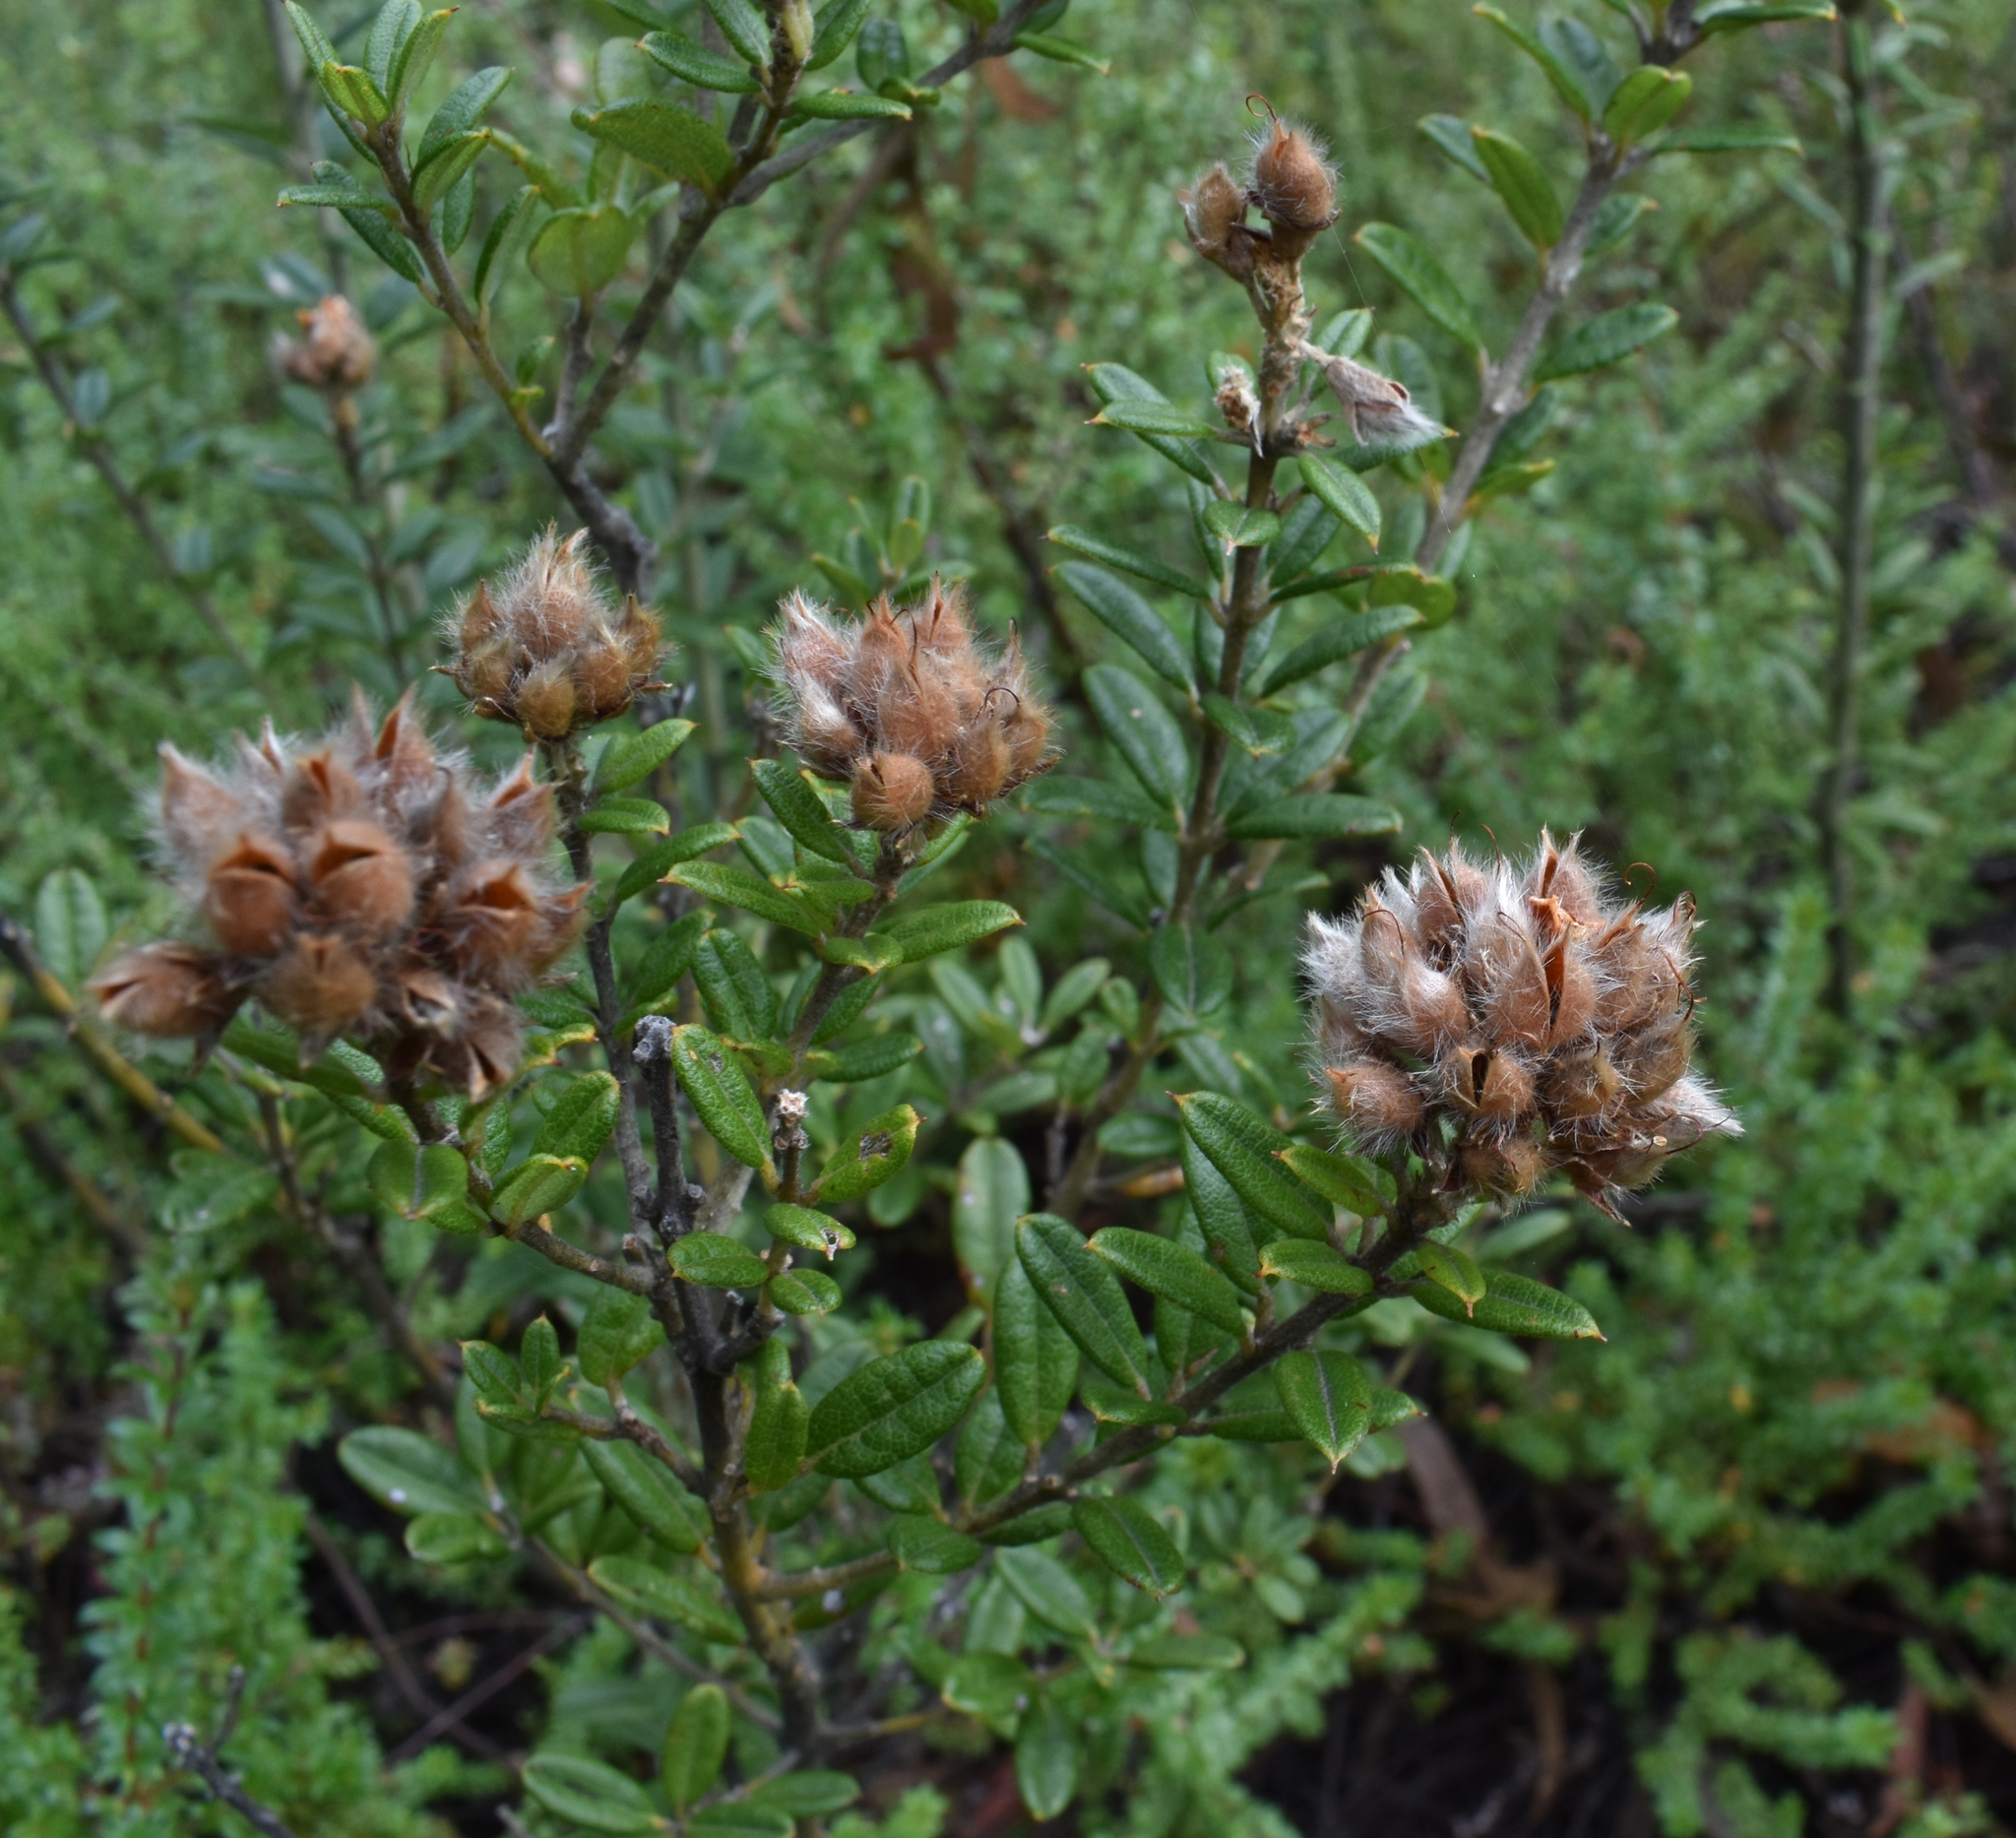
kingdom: Plantae
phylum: Tracheophyta
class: Magnoliopsida
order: Fabales
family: Fabaceae
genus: Oxylobium
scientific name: Oxylobium ellipticum
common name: Golden shaggy-pea
